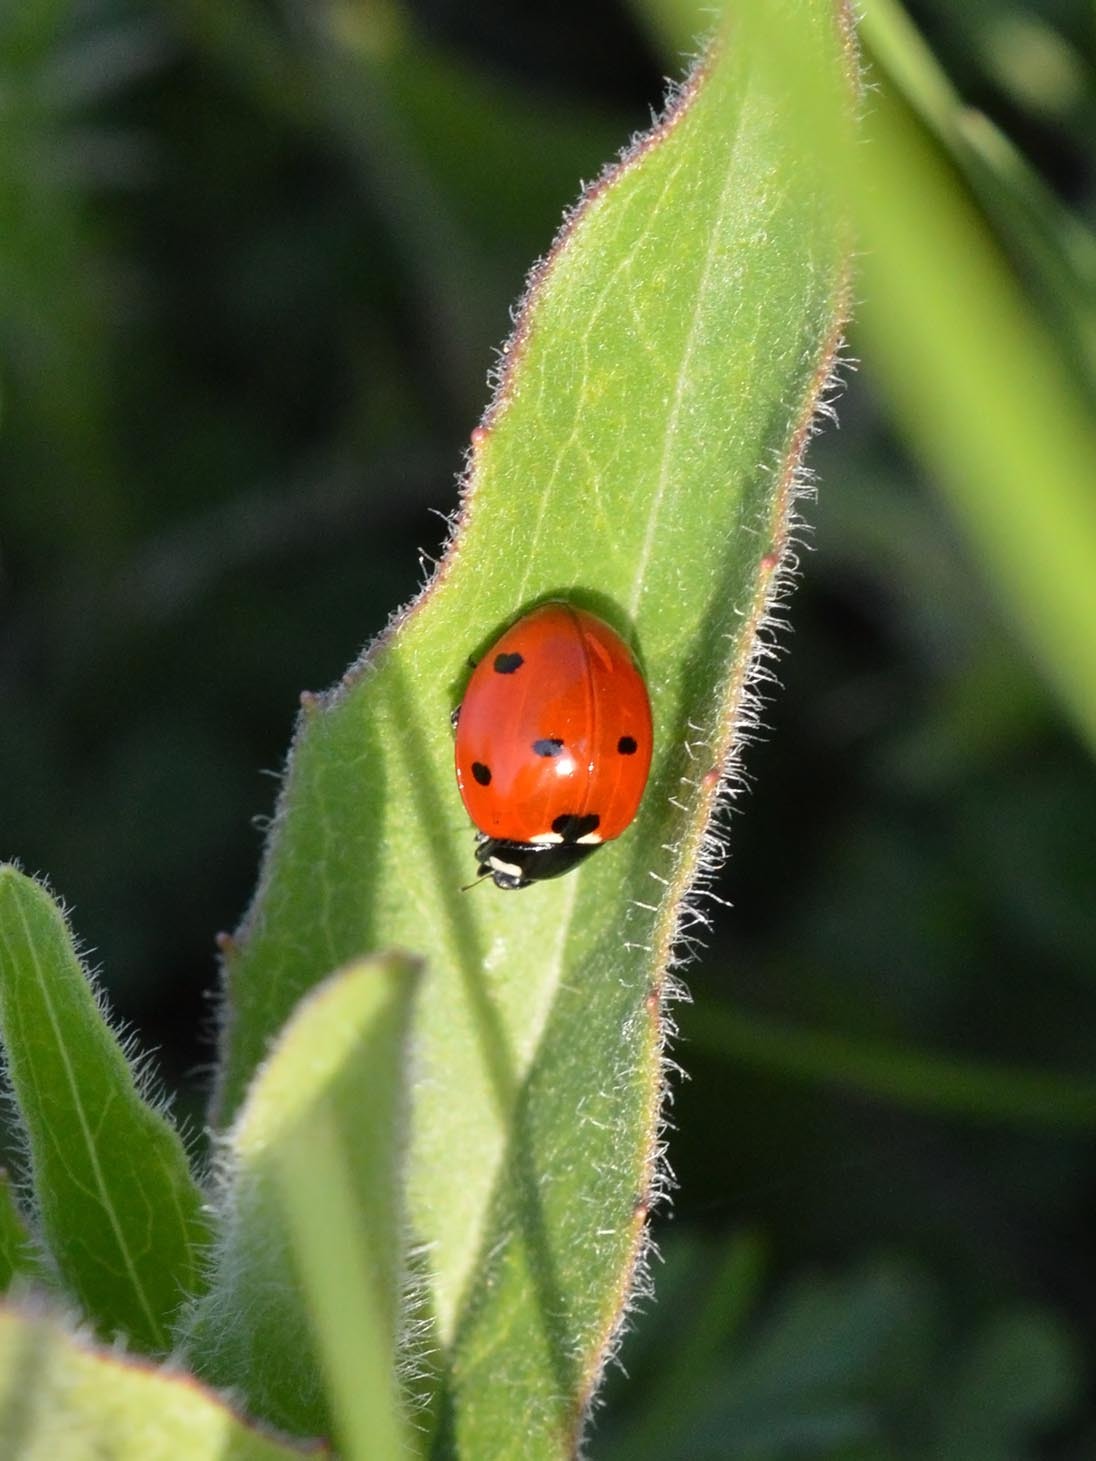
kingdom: Animalia
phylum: Arthropoda
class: Insecta
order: Coleoptera
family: Coccinellidae
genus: Coccinella
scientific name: Coccinella septempunctata
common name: Sevenspotted lady beetle
